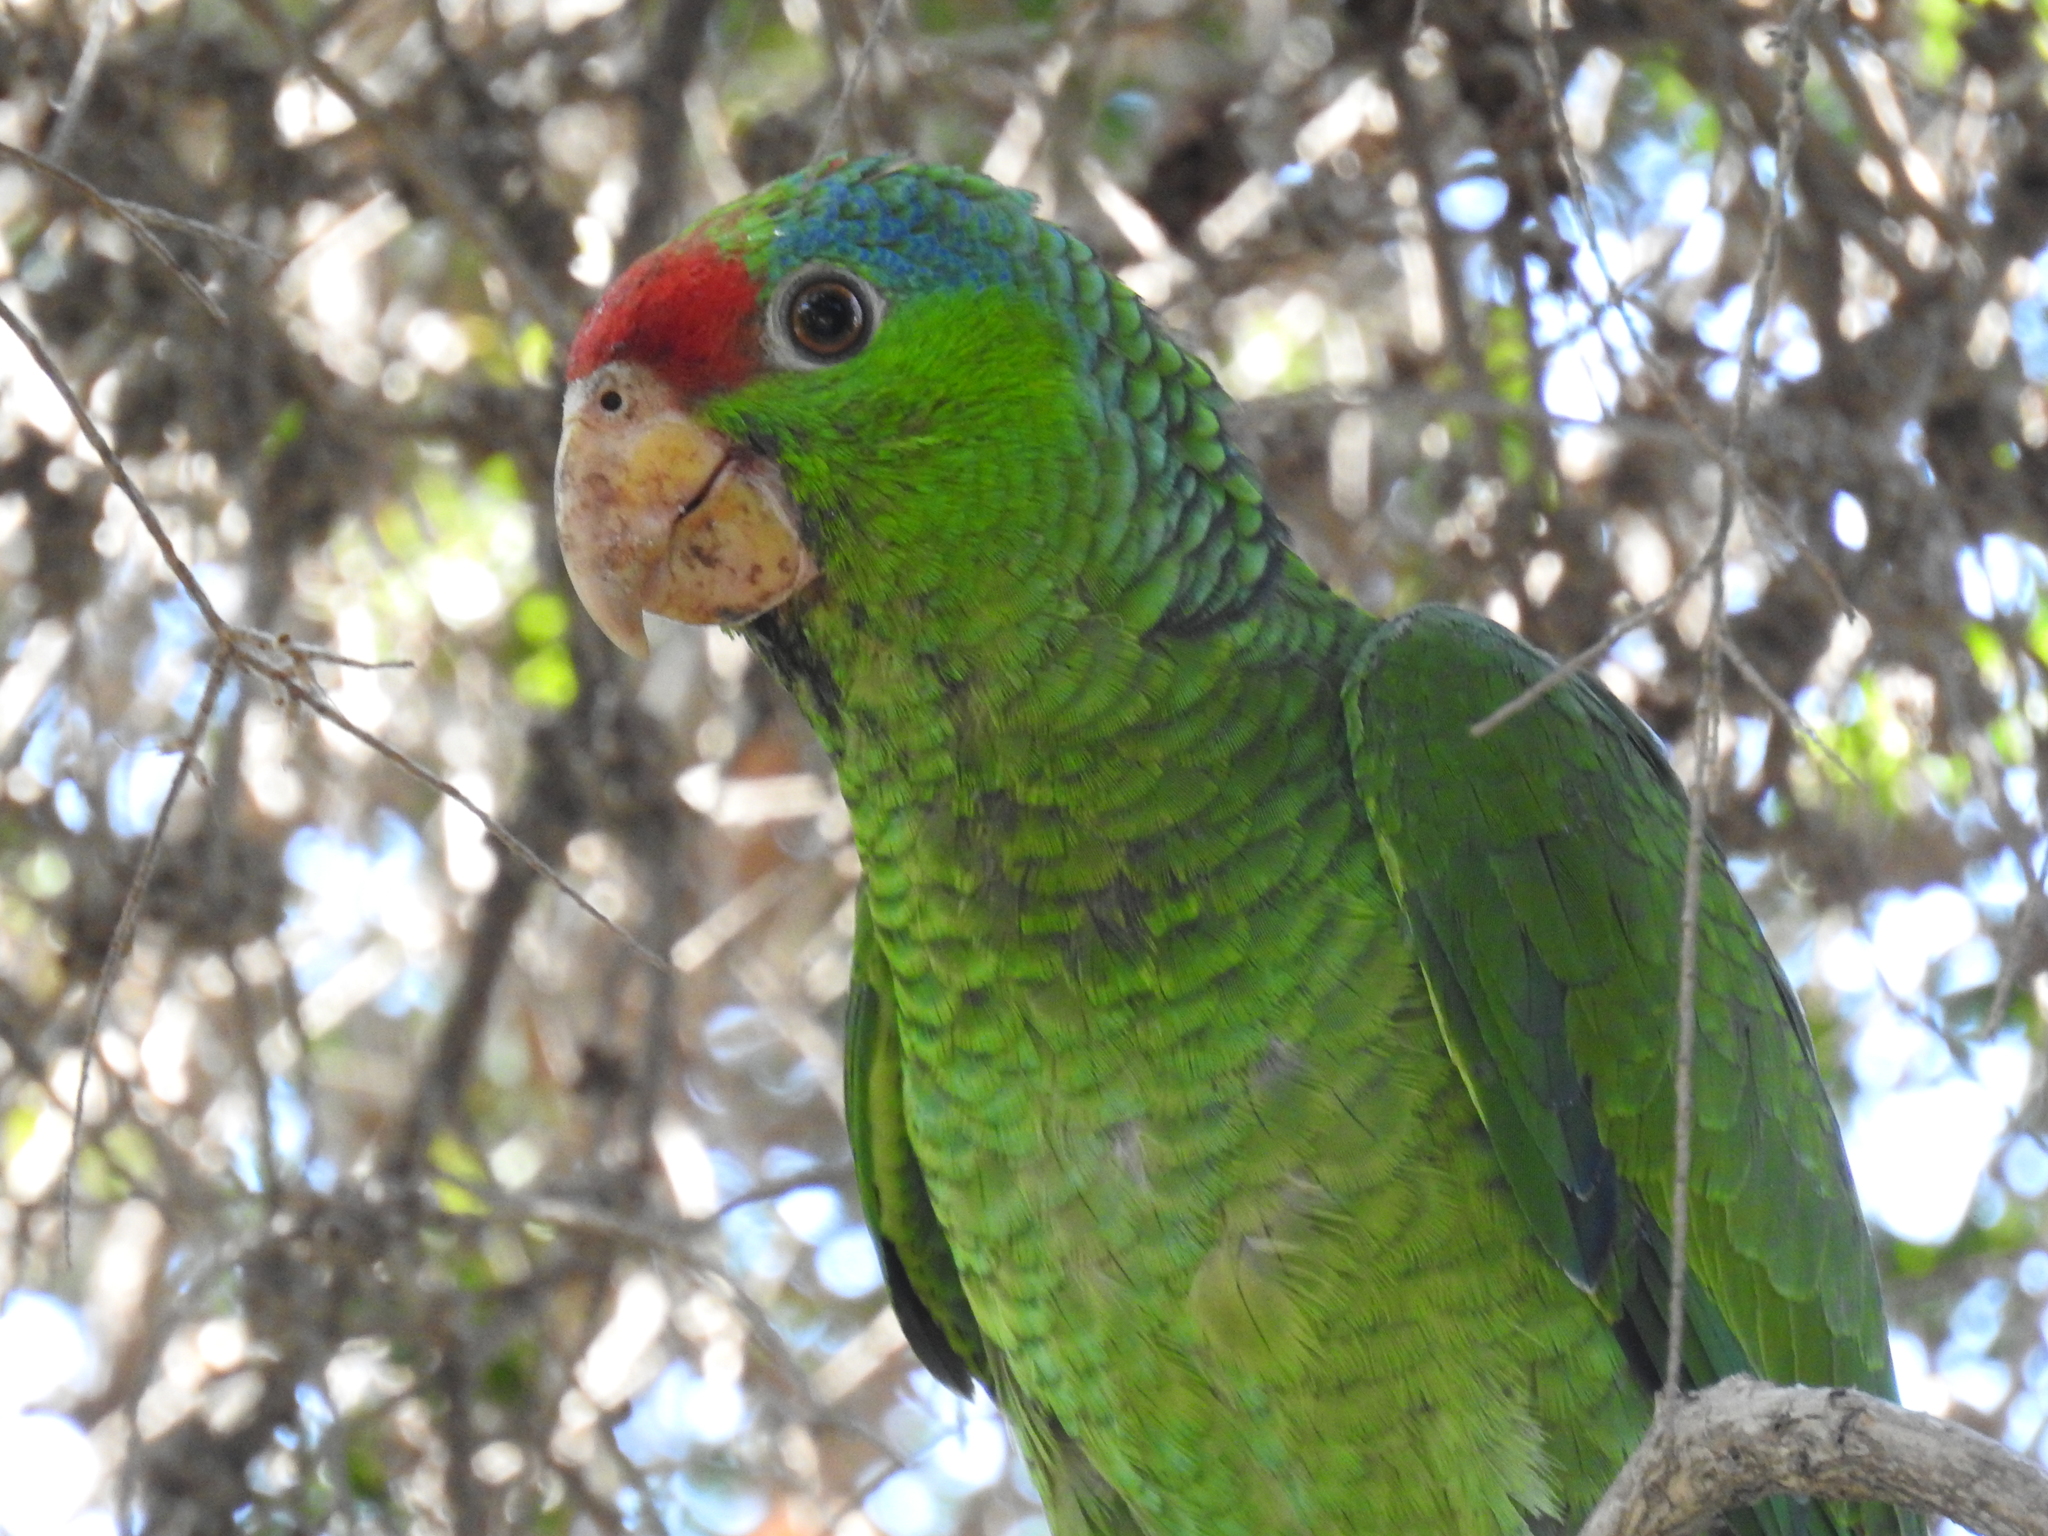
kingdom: Animalia
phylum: Chordata
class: Aves
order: Psittaciformes
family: Psittacidae
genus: Amazona
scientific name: Amazona viridigenalis
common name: Red-crowned amazon
